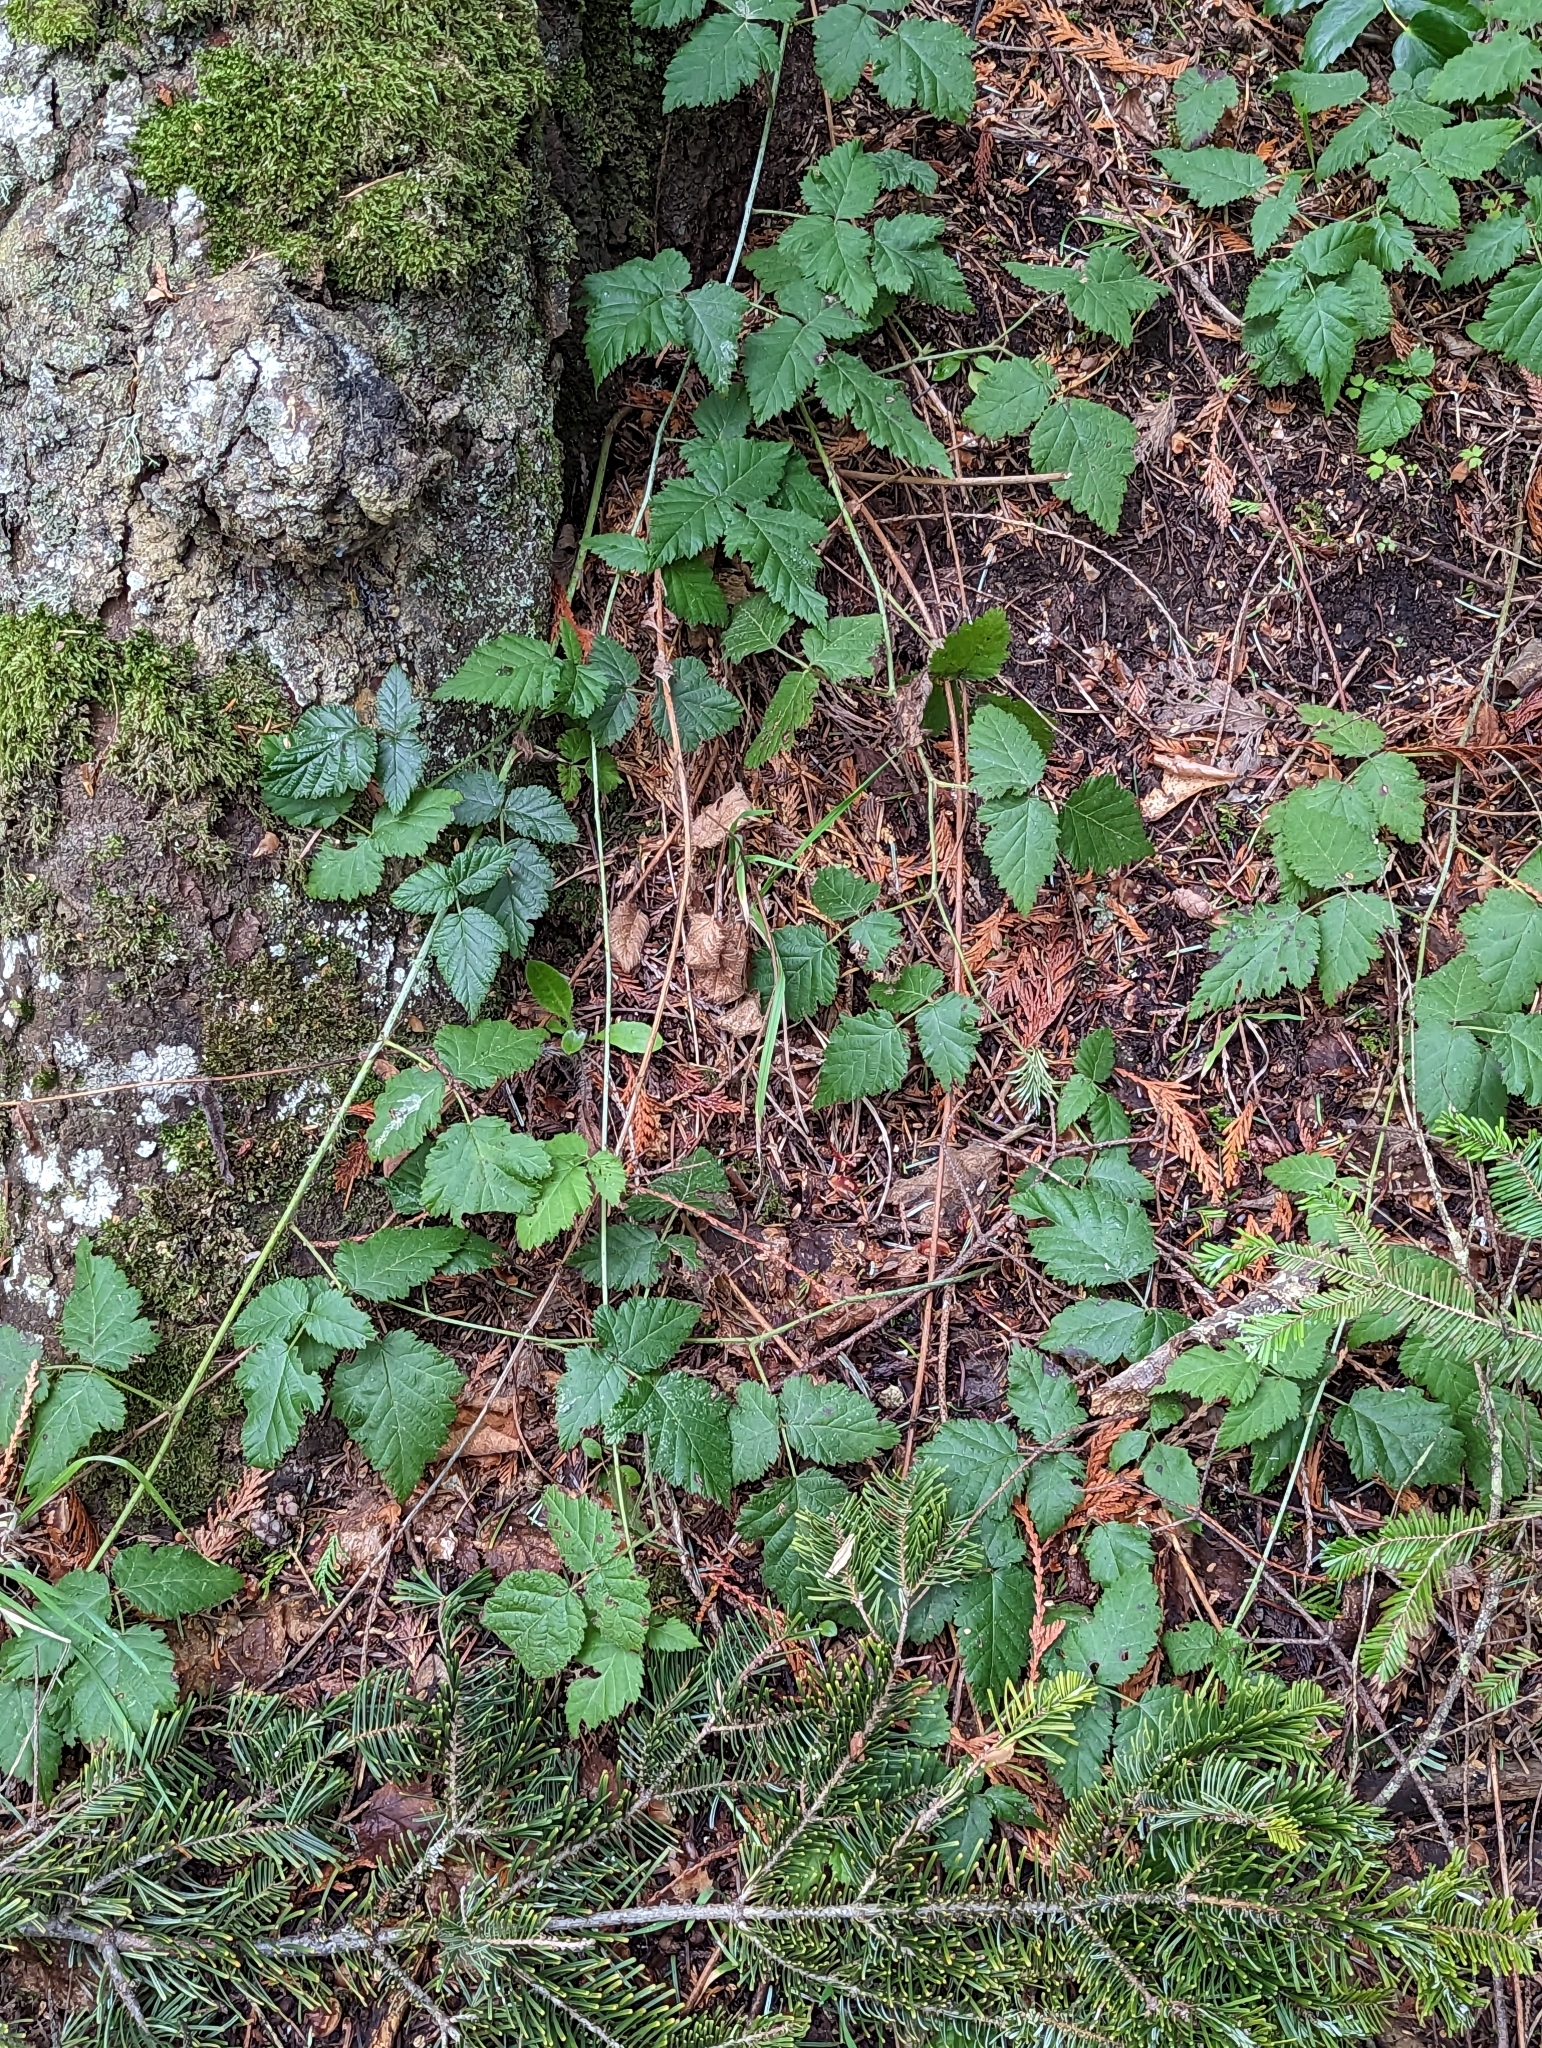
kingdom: Plantae
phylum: Tracheophyta
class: Magnoliopsida
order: Rosales
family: Rosaceae
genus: Rubus
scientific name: Rubus ursinus
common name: Pacific blackberry
